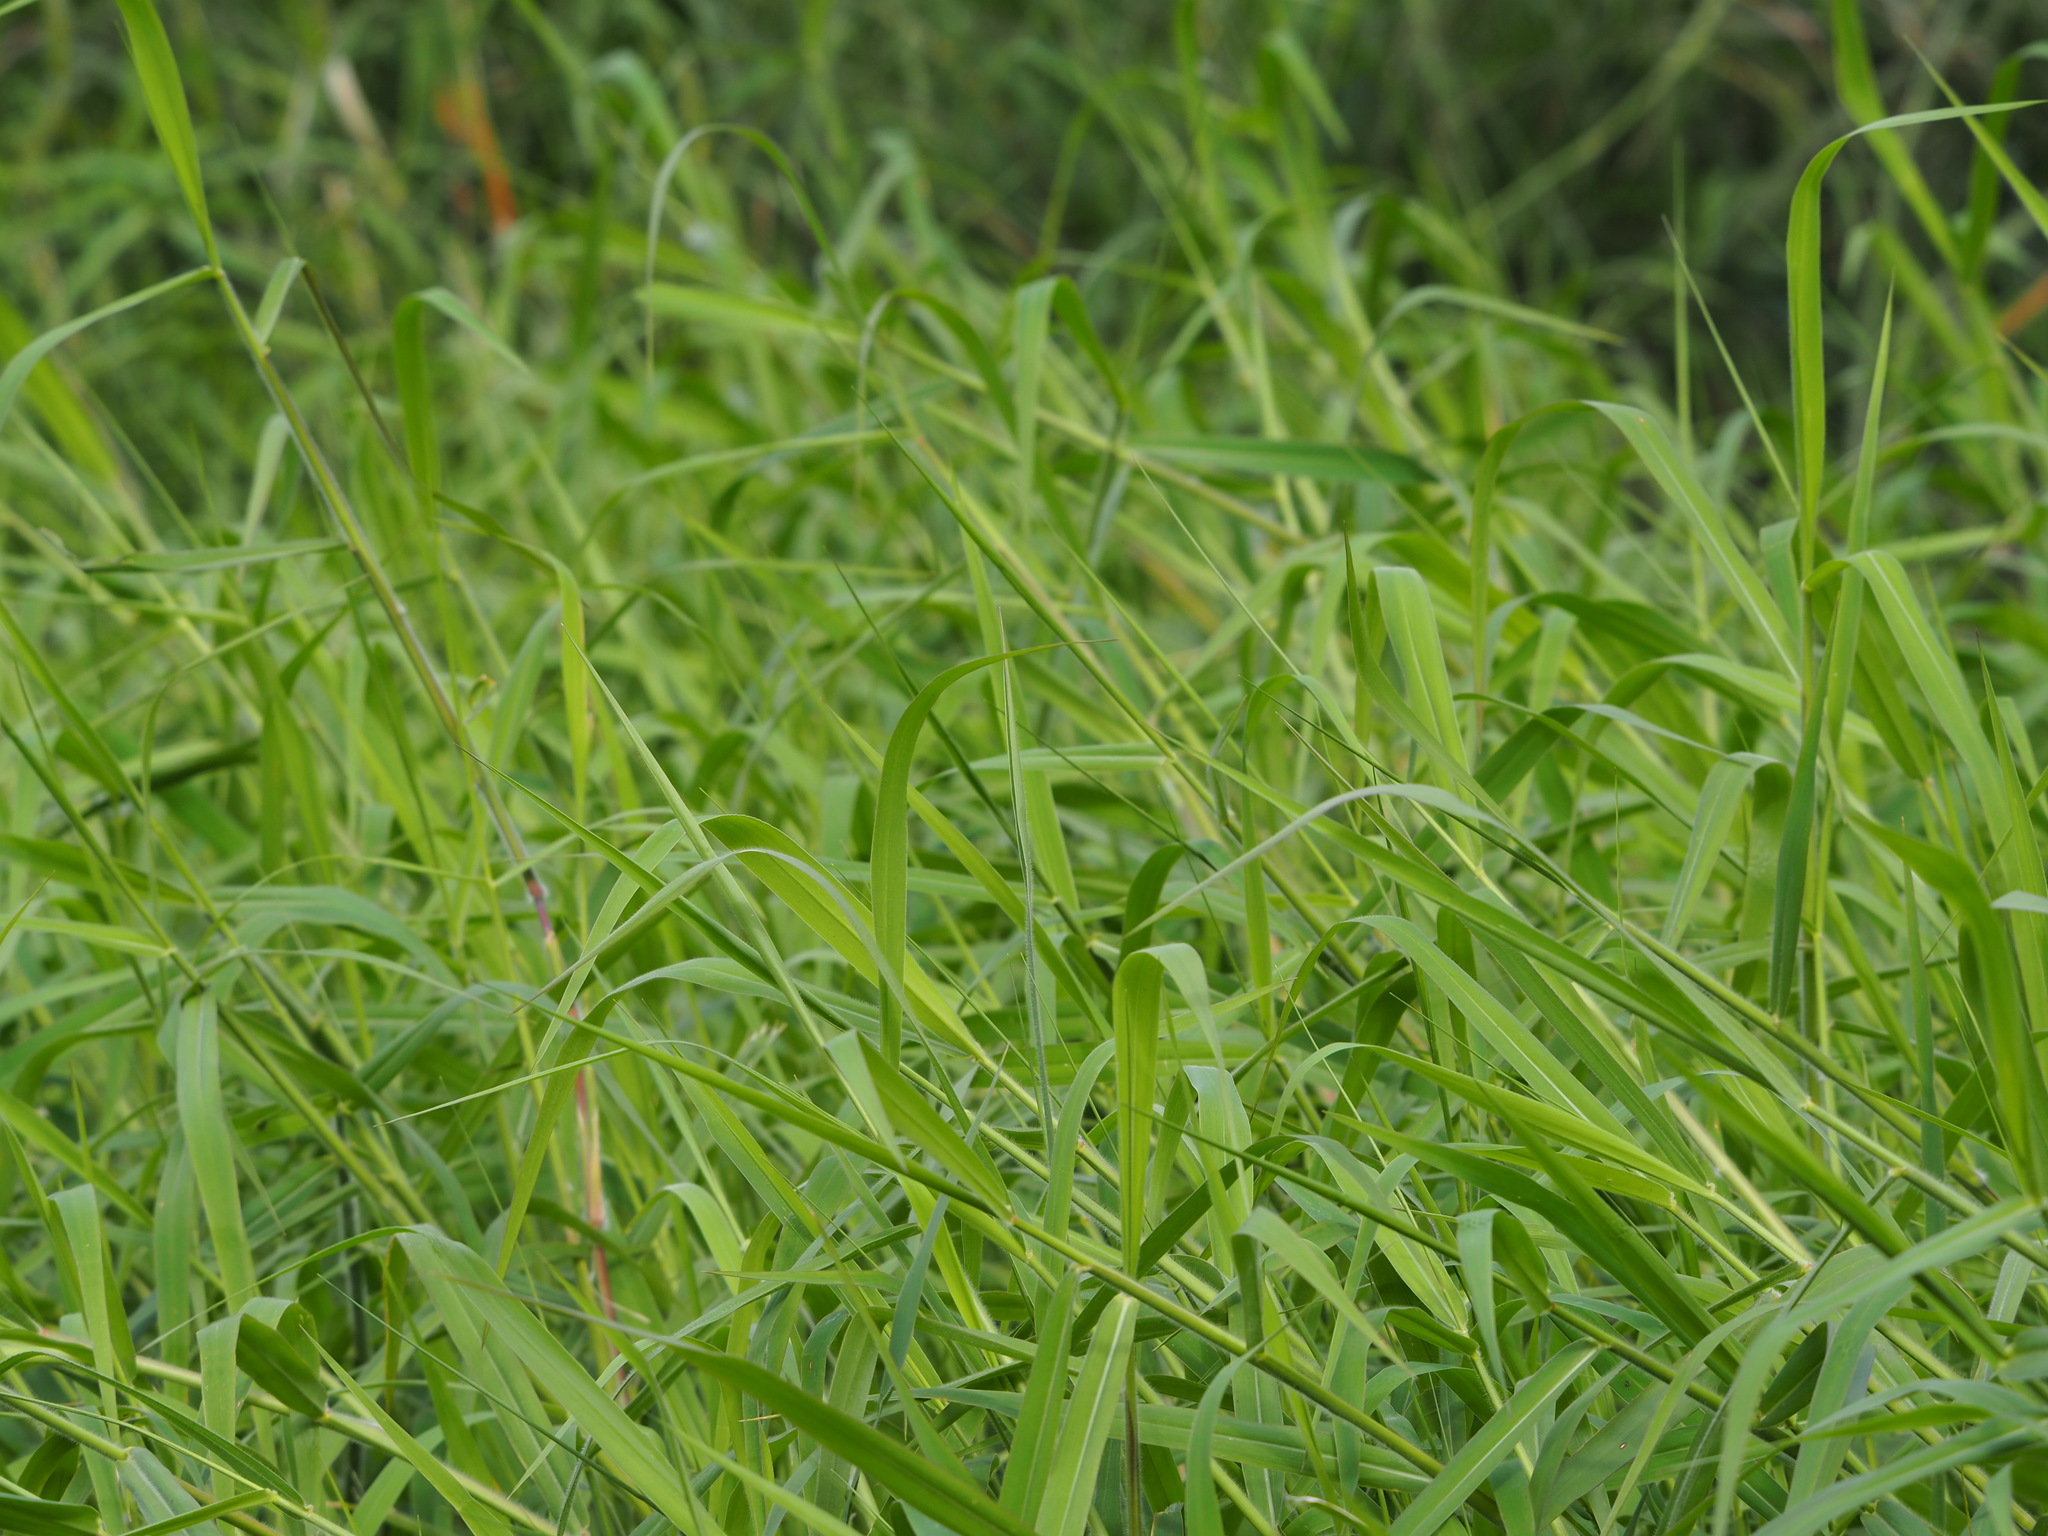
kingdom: Plantae
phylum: Tracheophyta
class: Liliopsida
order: Poales
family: Poaceae
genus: Urochloa
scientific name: Urochloa mutica
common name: Para grass
